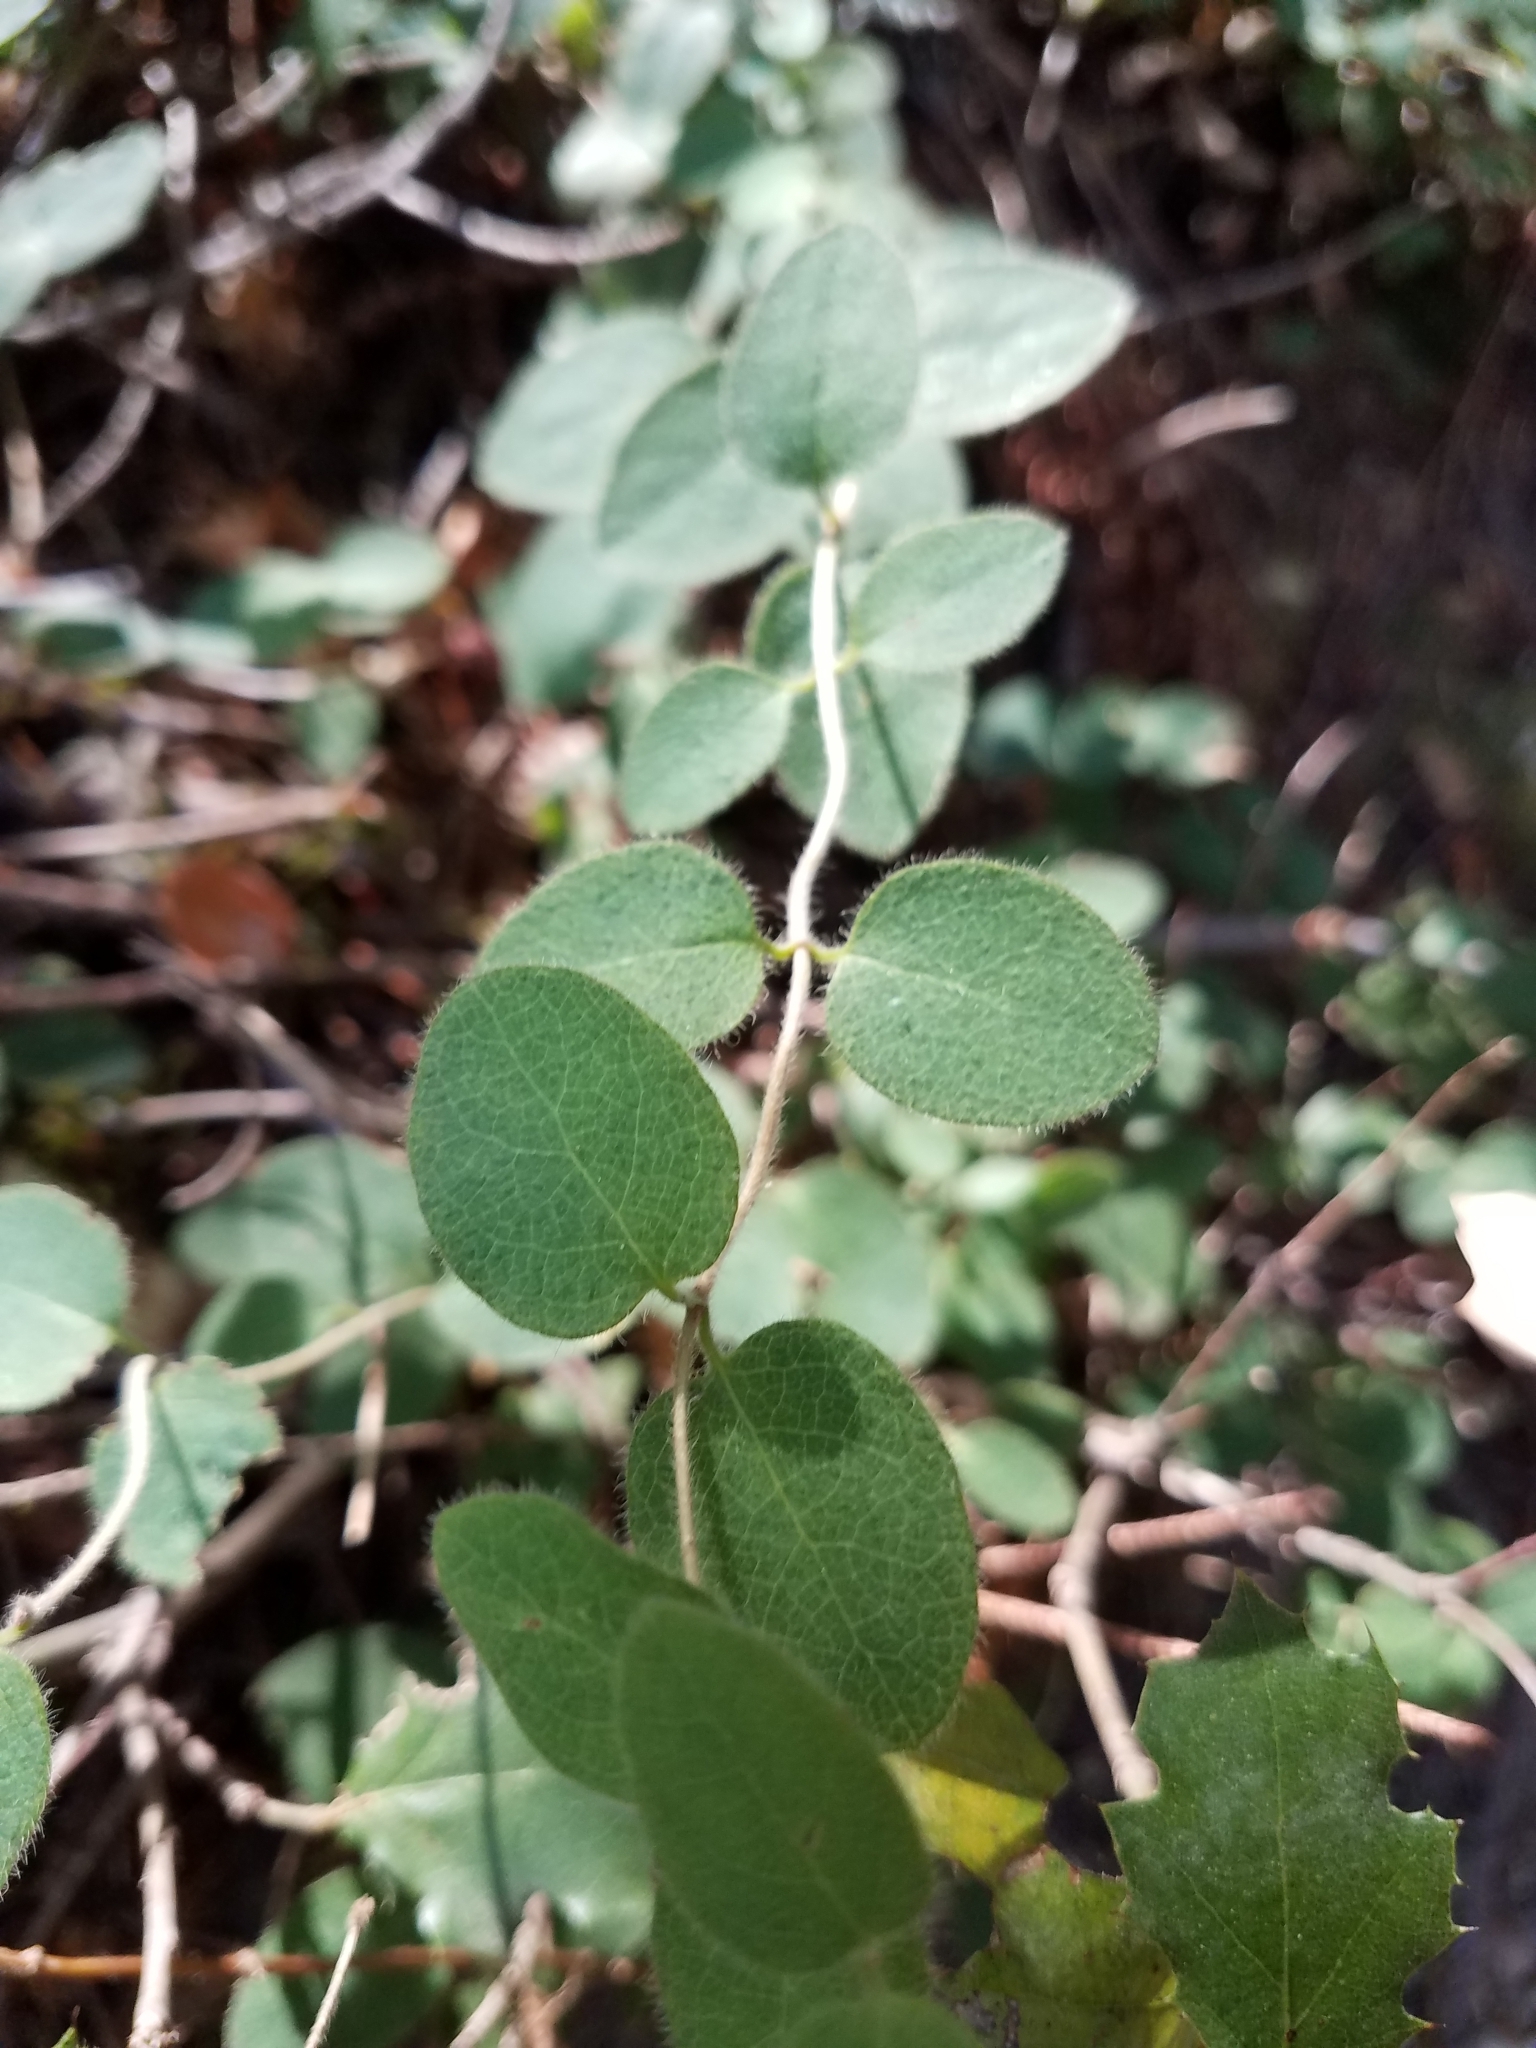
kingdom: Plantae
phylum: Tracheophyta
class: Magnoliopsida
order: Dipsacales
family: Caprifoliaceae
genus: Lonicera
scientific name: Lonicera hispidula
